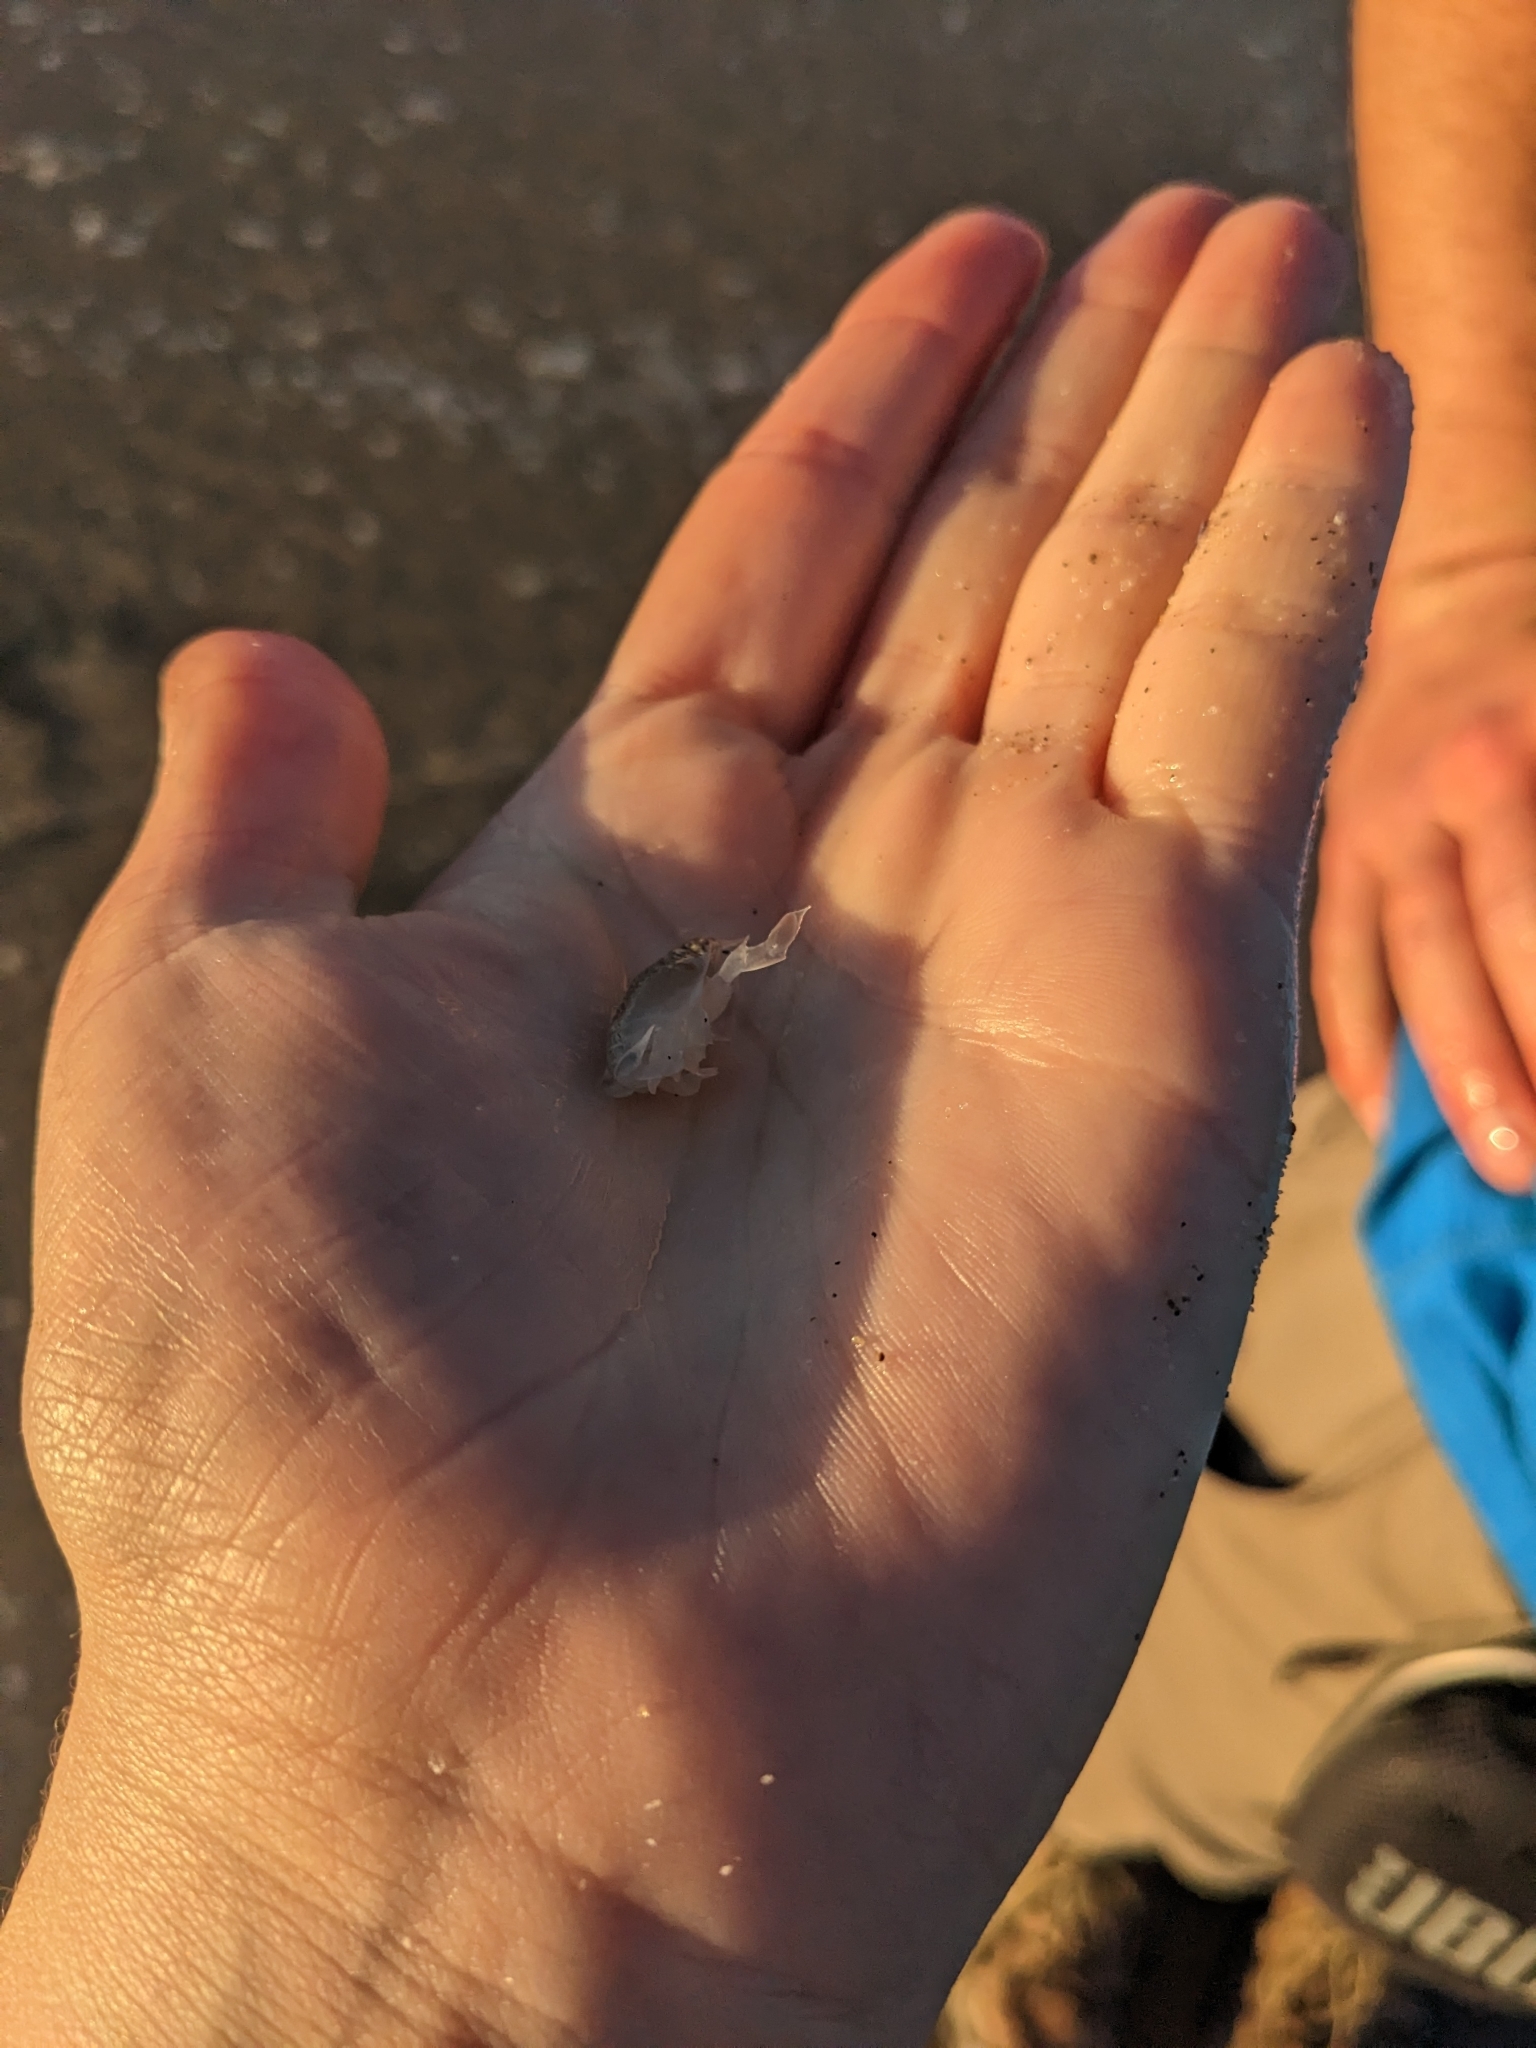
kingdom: Animalia
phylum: Arthropoda
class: Malacostraca
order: Decapoda
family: Hippidae
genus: Emerita
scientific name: Emerita analoga
